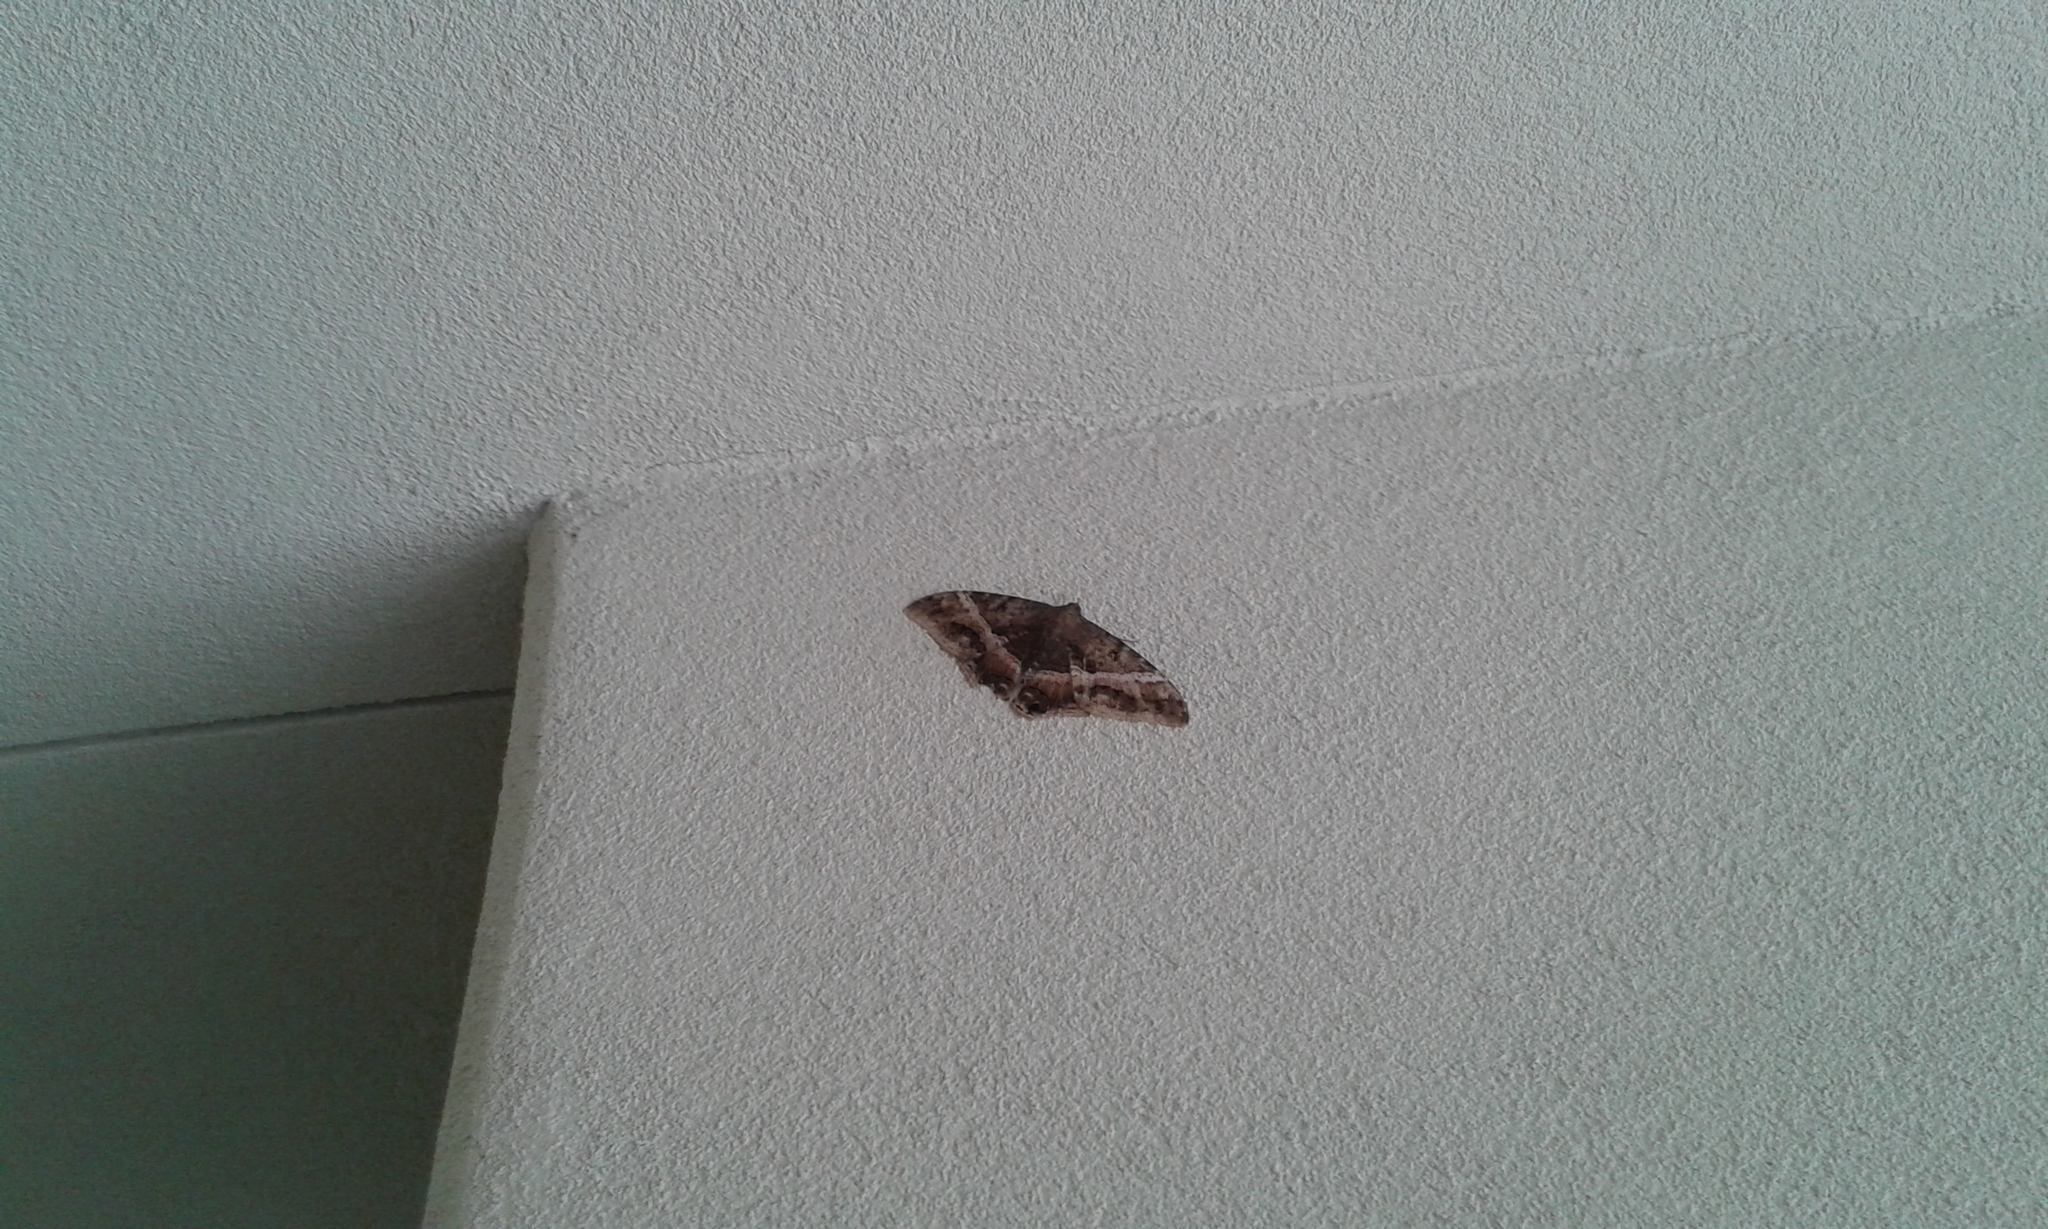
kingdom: Animalia
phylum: Arthropoda
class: Insecta
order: Lepidoptera
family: Erebidae
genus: Ascalapha
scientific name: Ascalapha odorata
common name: Black witch
